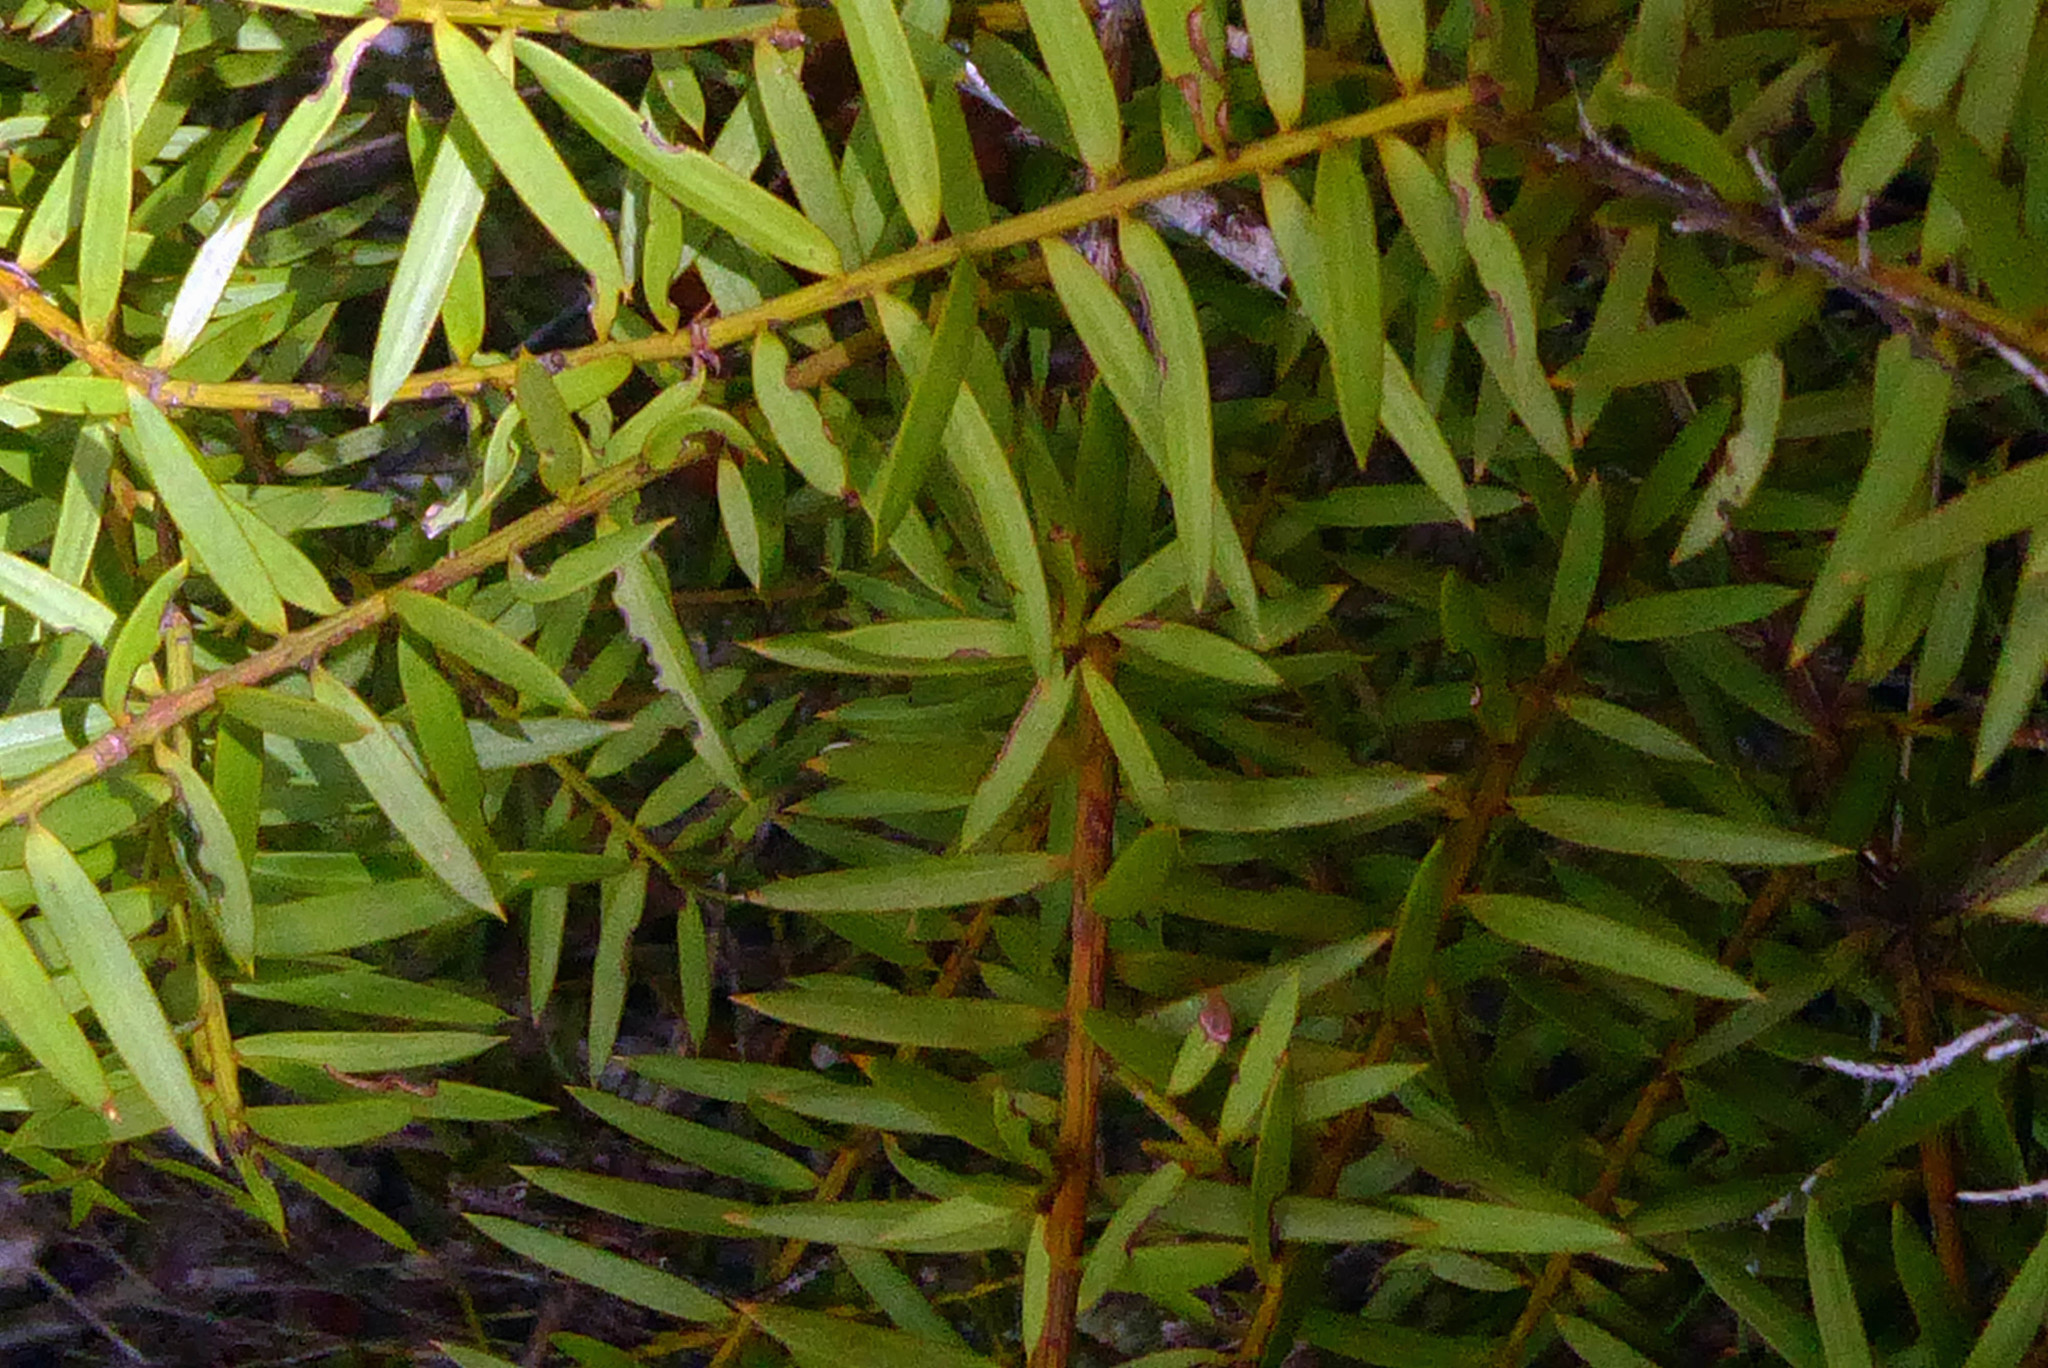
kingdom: Plantae
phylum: Tracheophyta
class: Pinopsida
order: Pinales
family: Podocarpaceae
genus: Podocarpus
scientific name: Podocarpus totara
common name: Totara
